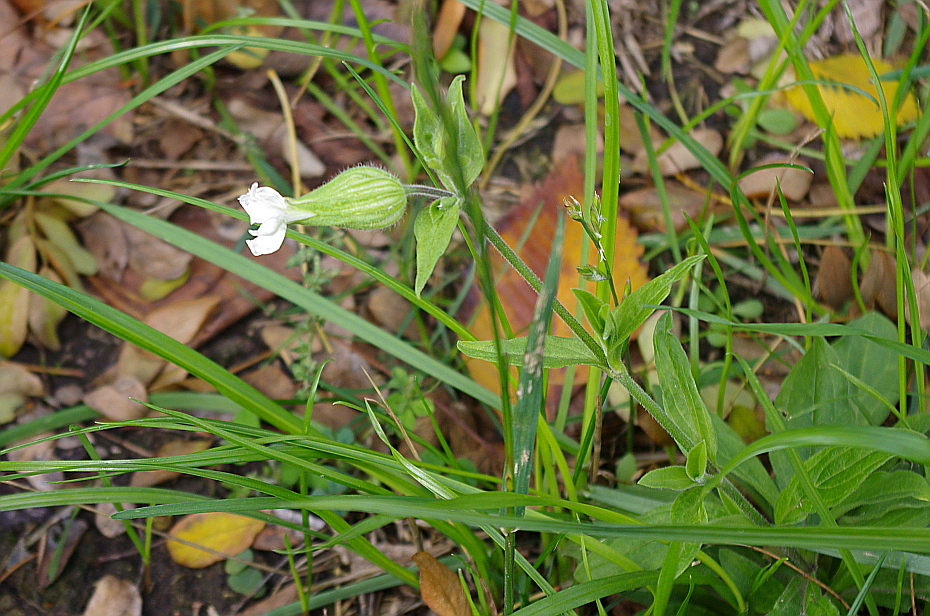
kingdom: Plantae
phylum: Tracheophyta
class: Magnoliopsida
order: Caryophyllales
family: Caryophyllaceae
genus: Silene
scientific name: Silene latifolia
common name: White campion
